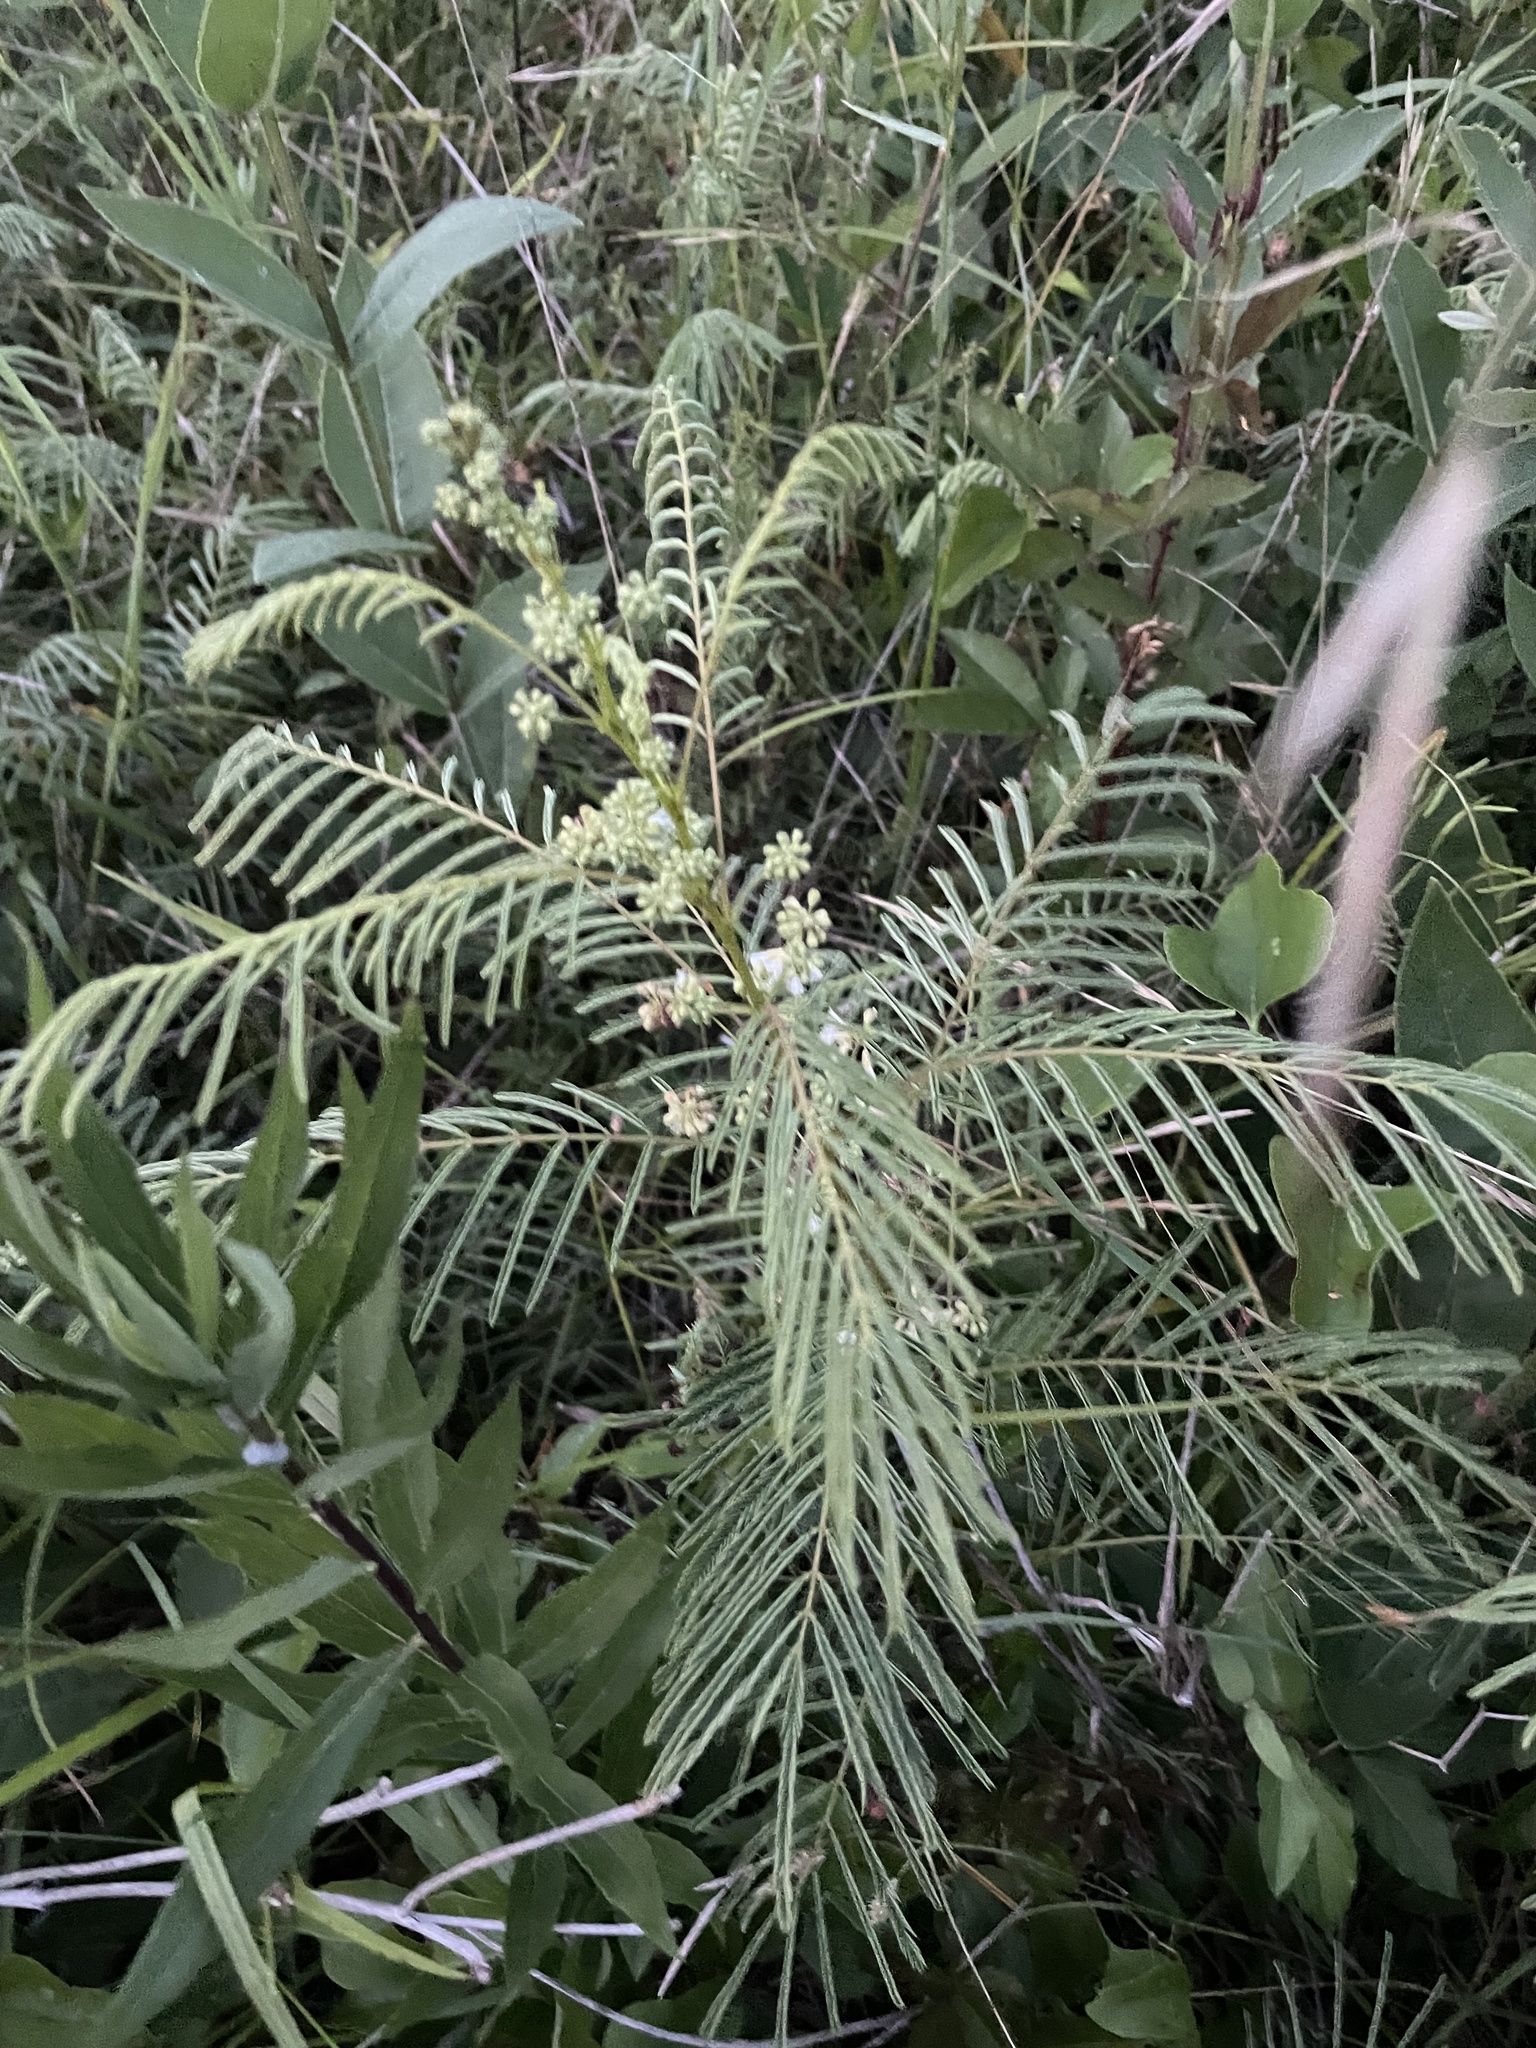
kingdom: Plantae
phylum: Tracheophyta
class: Magnoliopsida
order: Fabales
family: Fabaceae
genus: Acaciella
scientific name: Acaciella angustissima
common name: Prairie acacia
